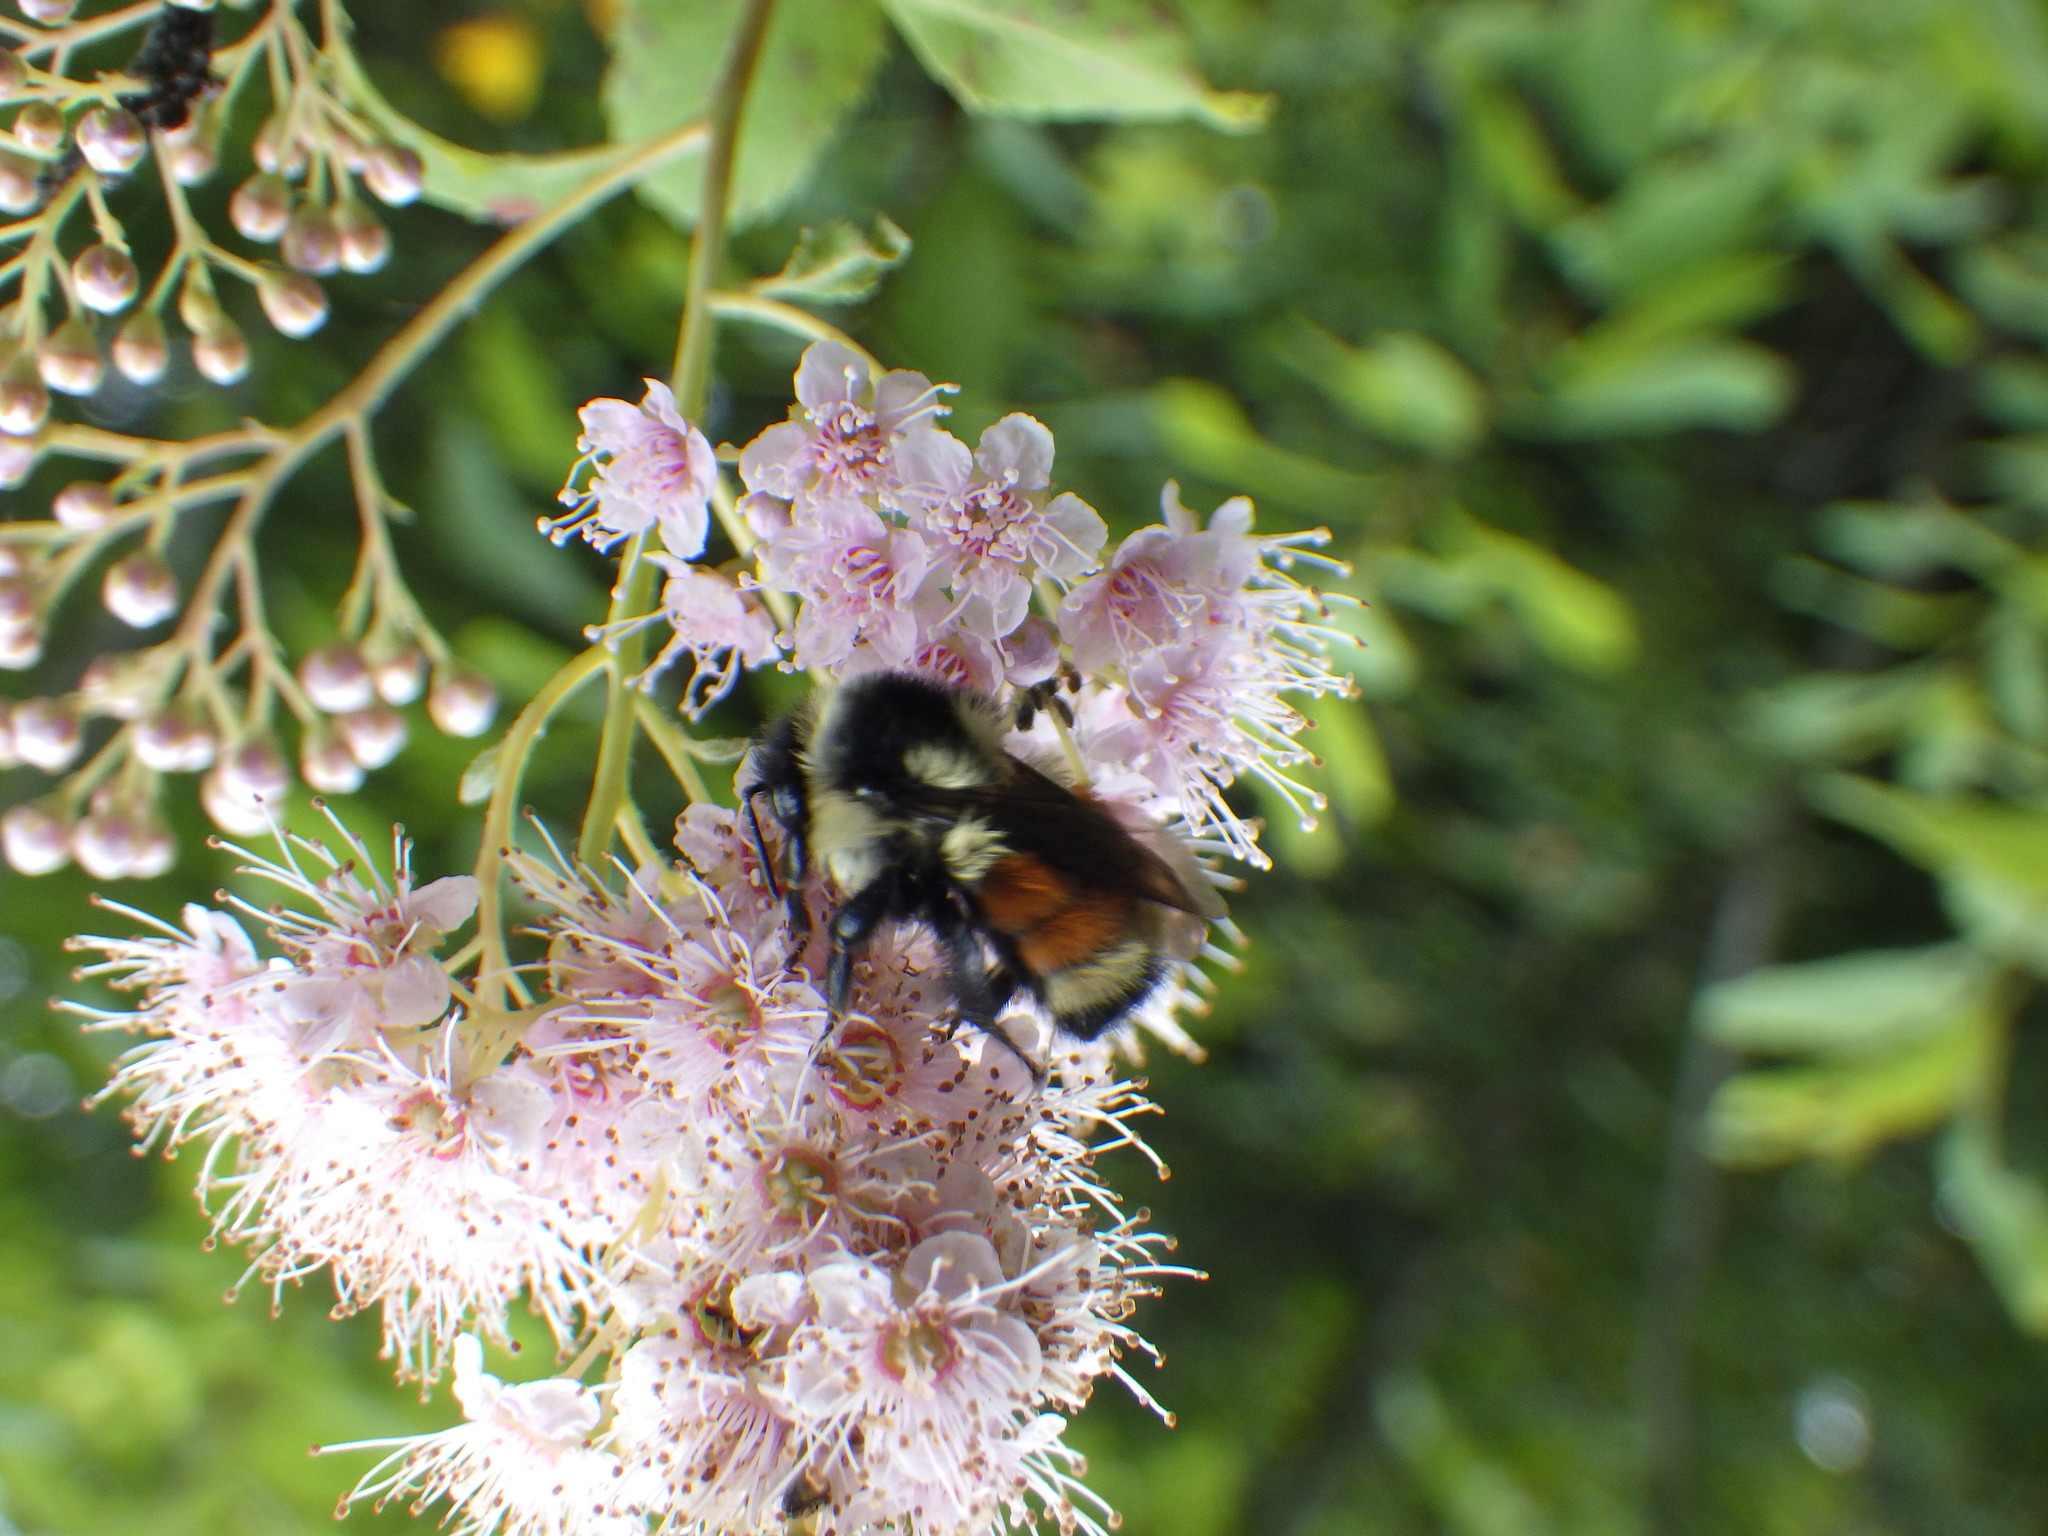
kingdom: Animalia
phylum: Arthropoda
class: Insecta
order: Hymenoptera
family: Apidae
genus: Bombus
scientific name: Bombus ternarius
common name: Tri-colored bumble bee
